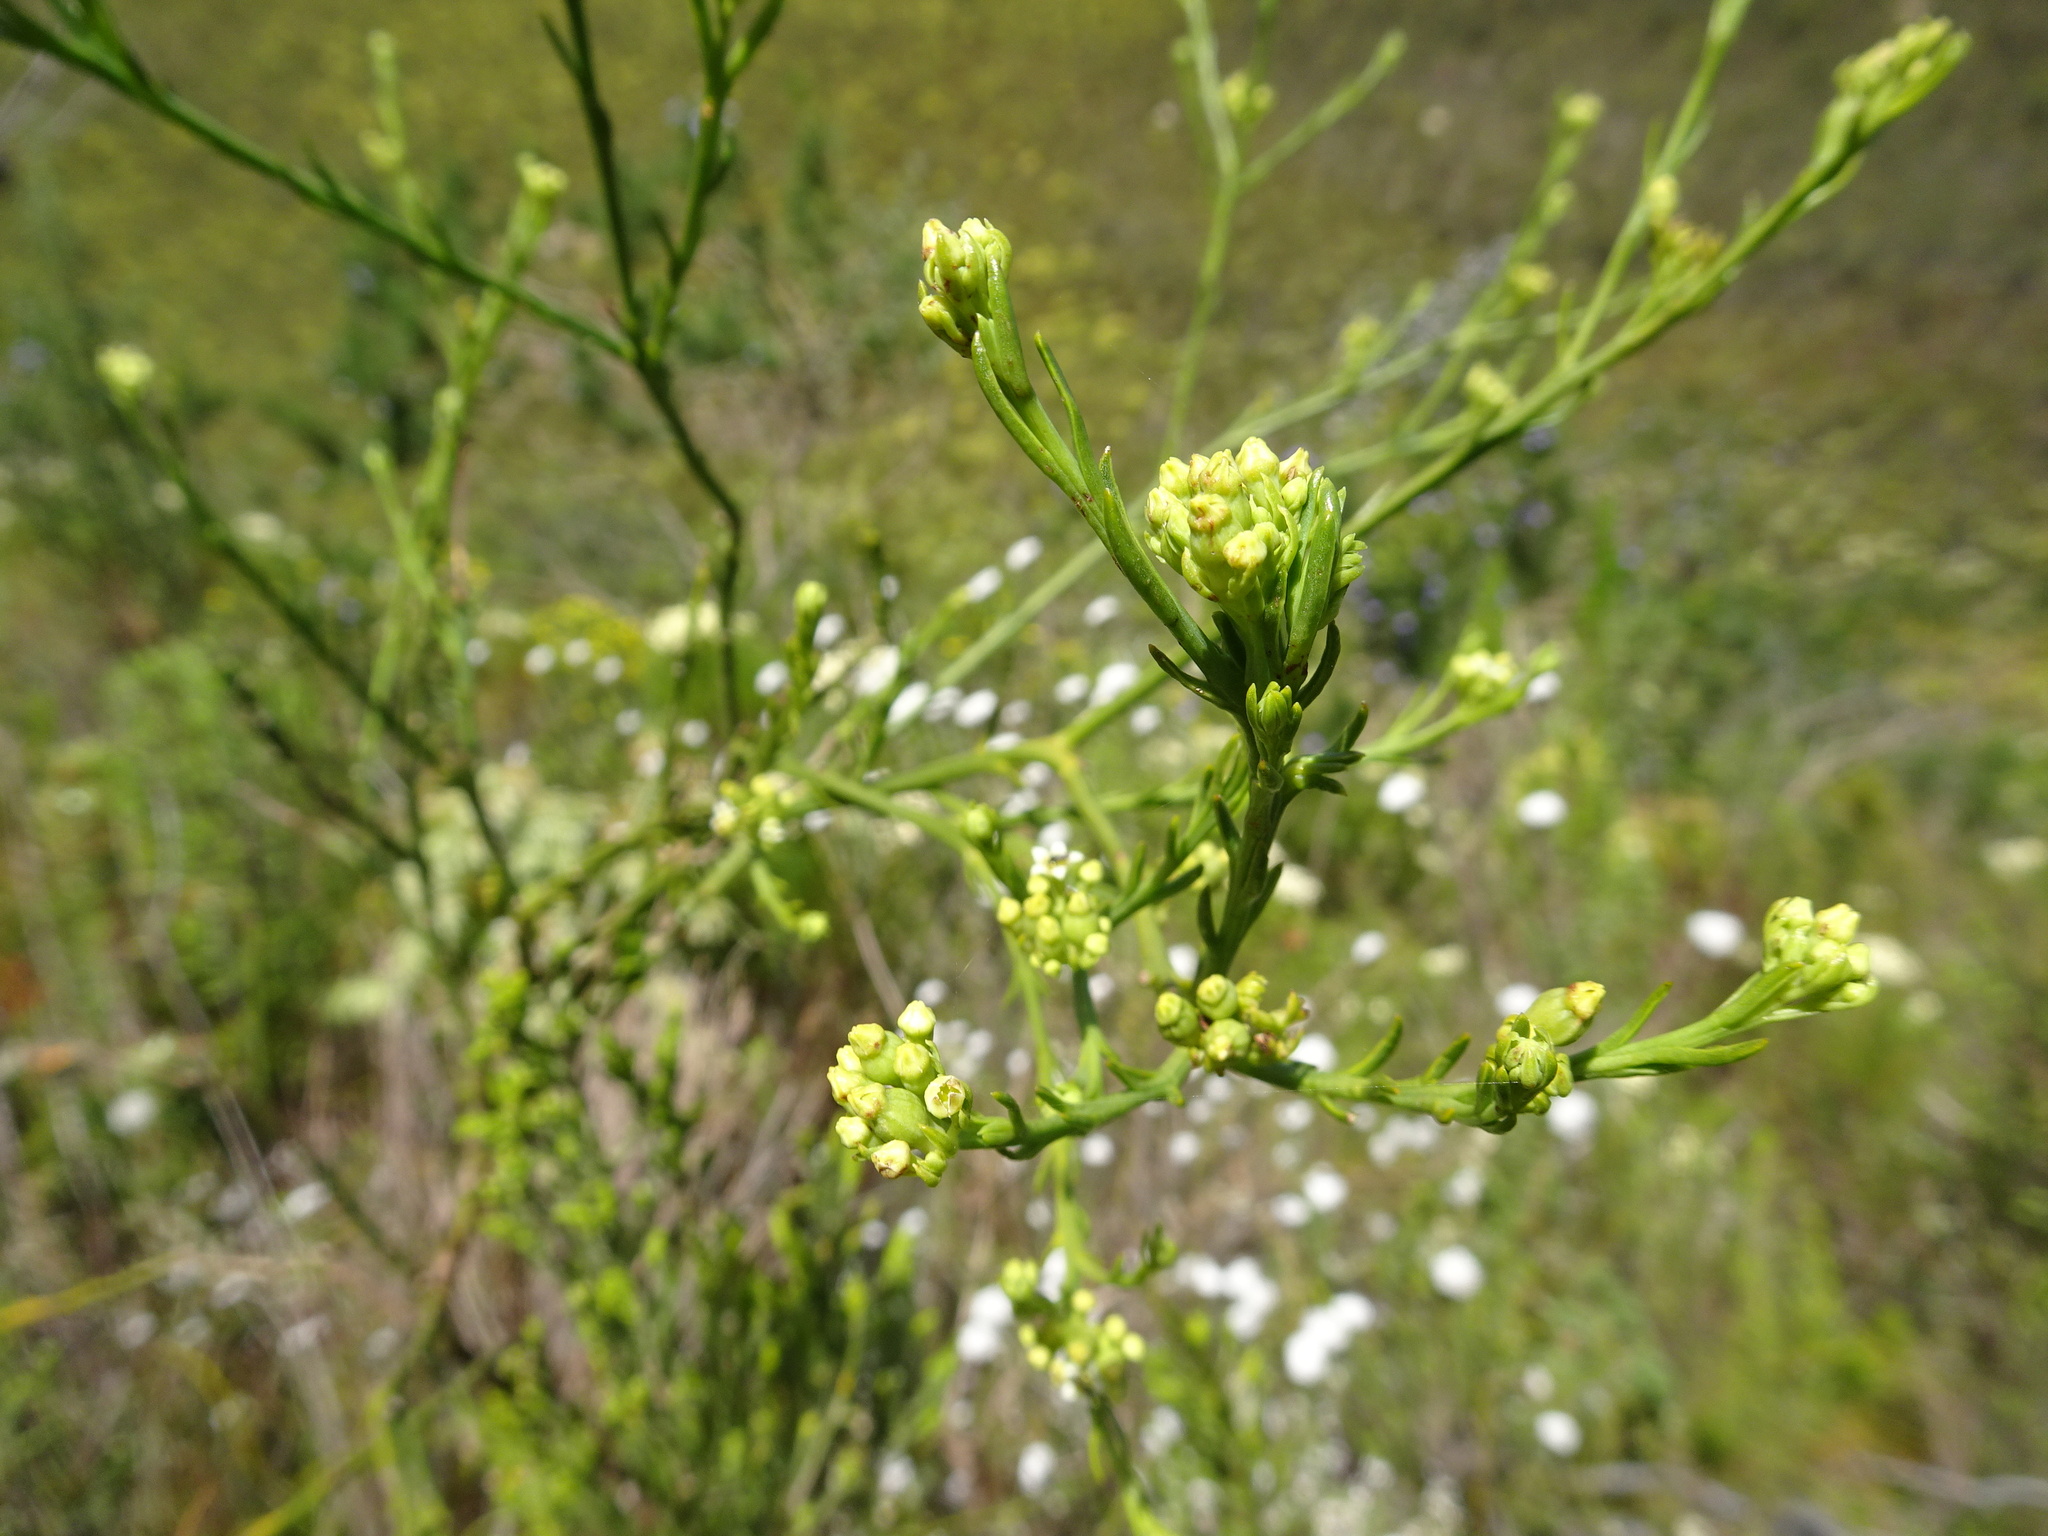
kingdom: Plantae
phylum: Tracheophyta
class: Magnoliopsida
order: Santalales
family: Thesiaceae
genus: Thesium
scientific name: Thesium strictum
